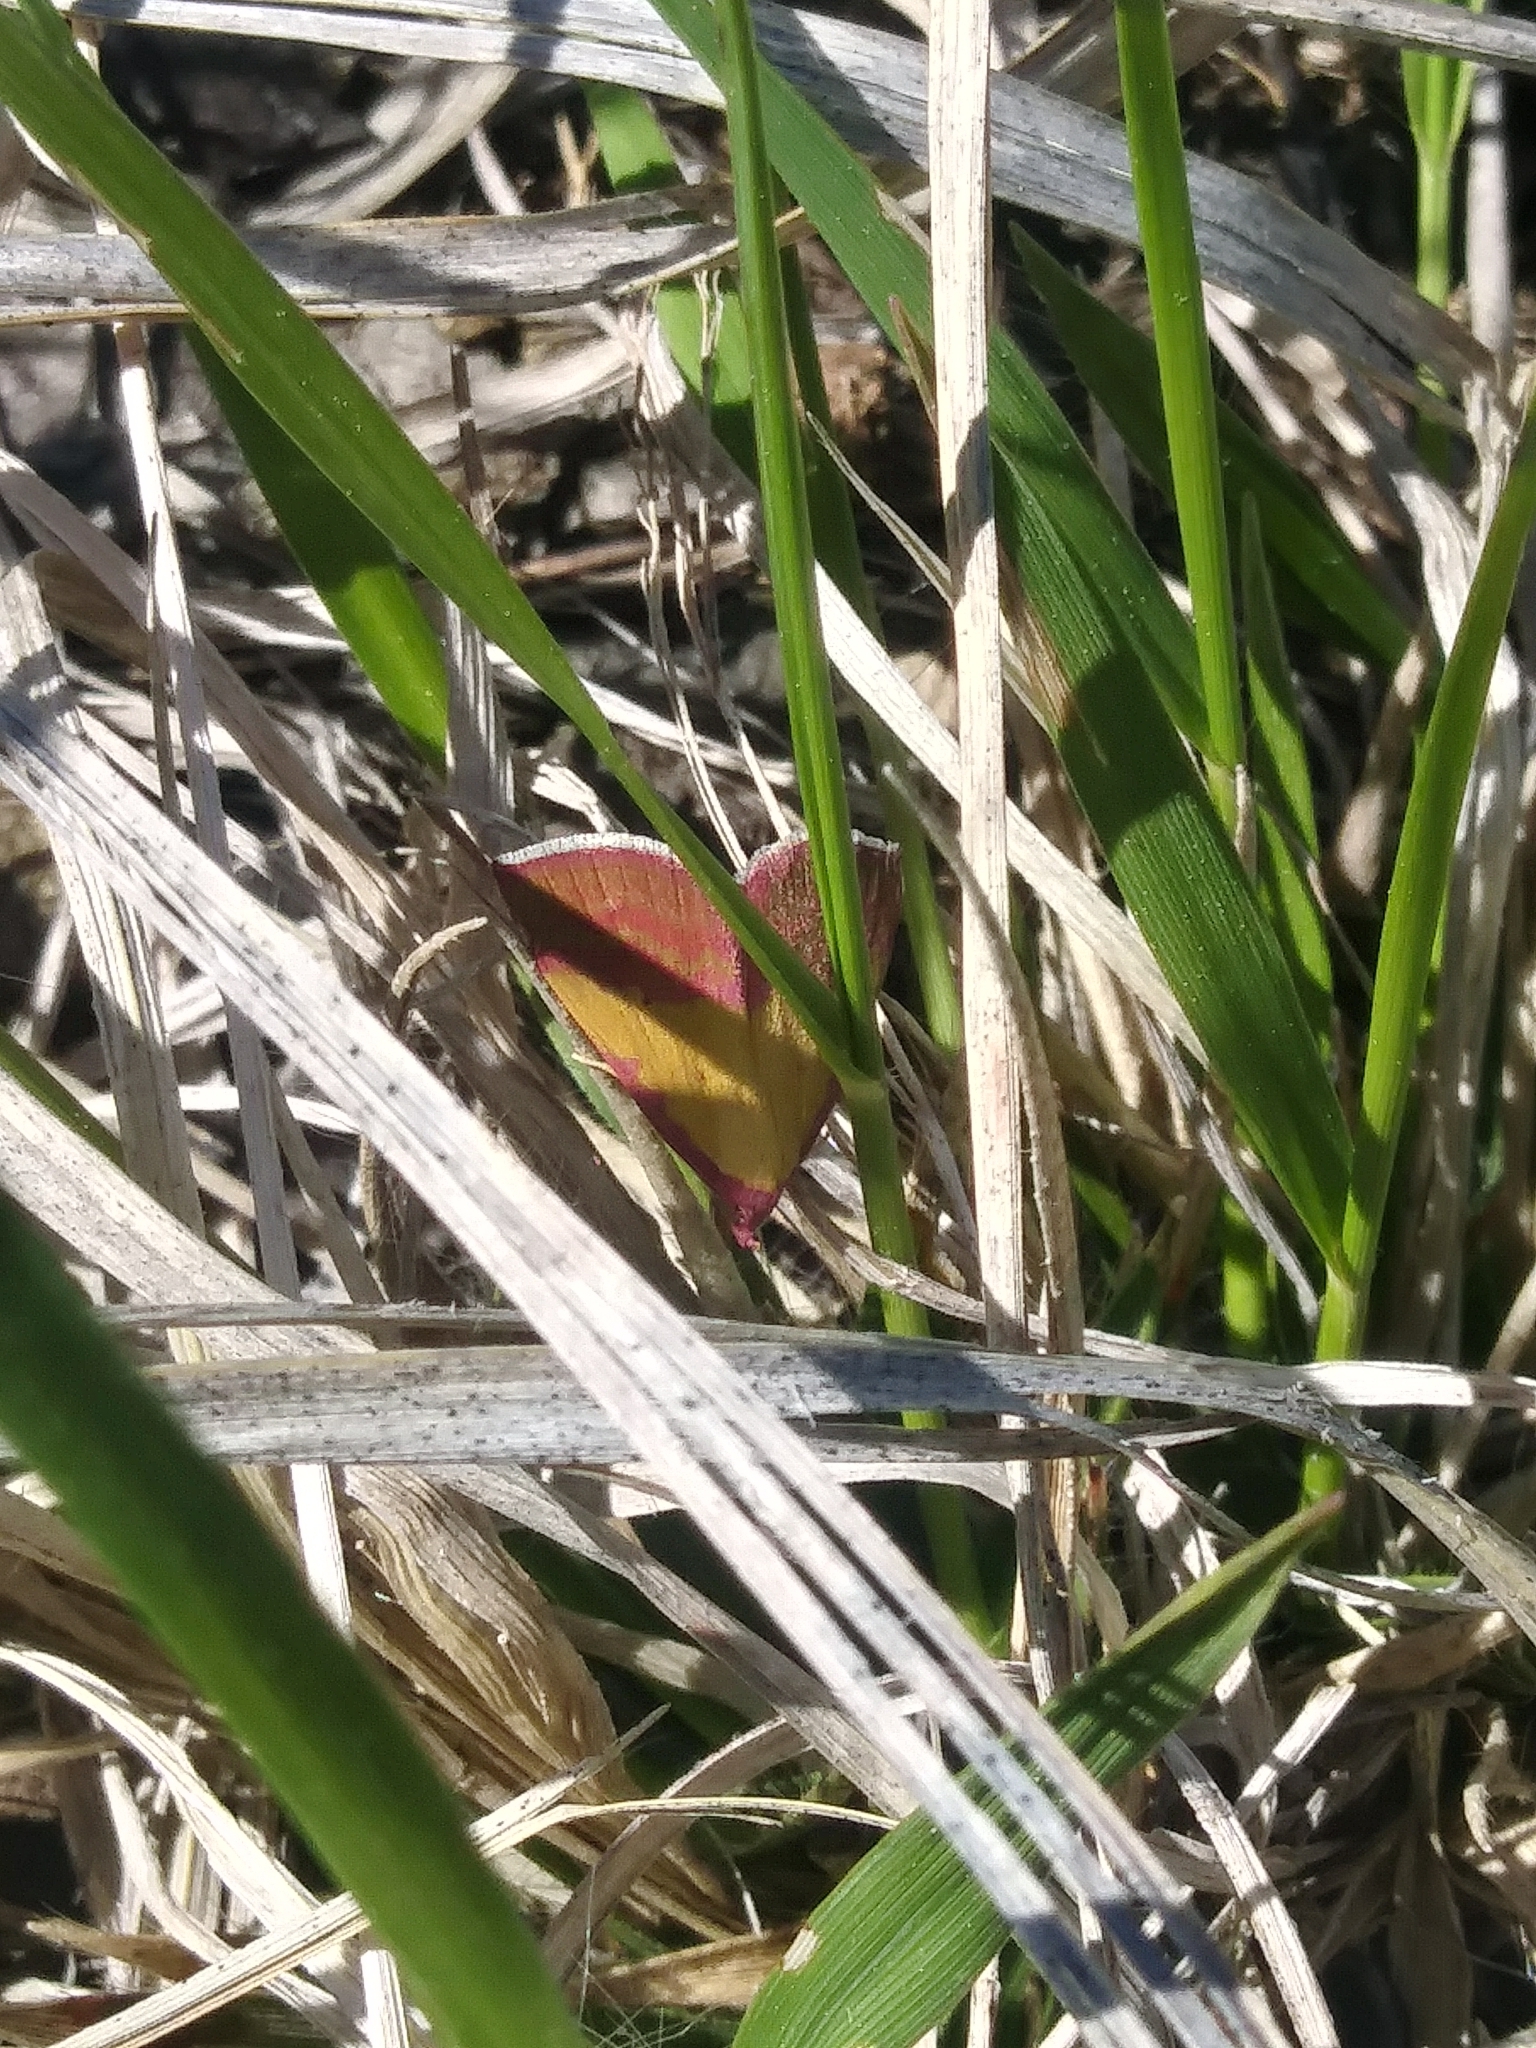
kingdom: Animalia
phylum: Arthropoda
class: Insecta
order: Lepidoptera
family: Erebidae
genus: Phytometra
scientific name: Phytometra rhodarialis
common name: Pink-bordered yellow
